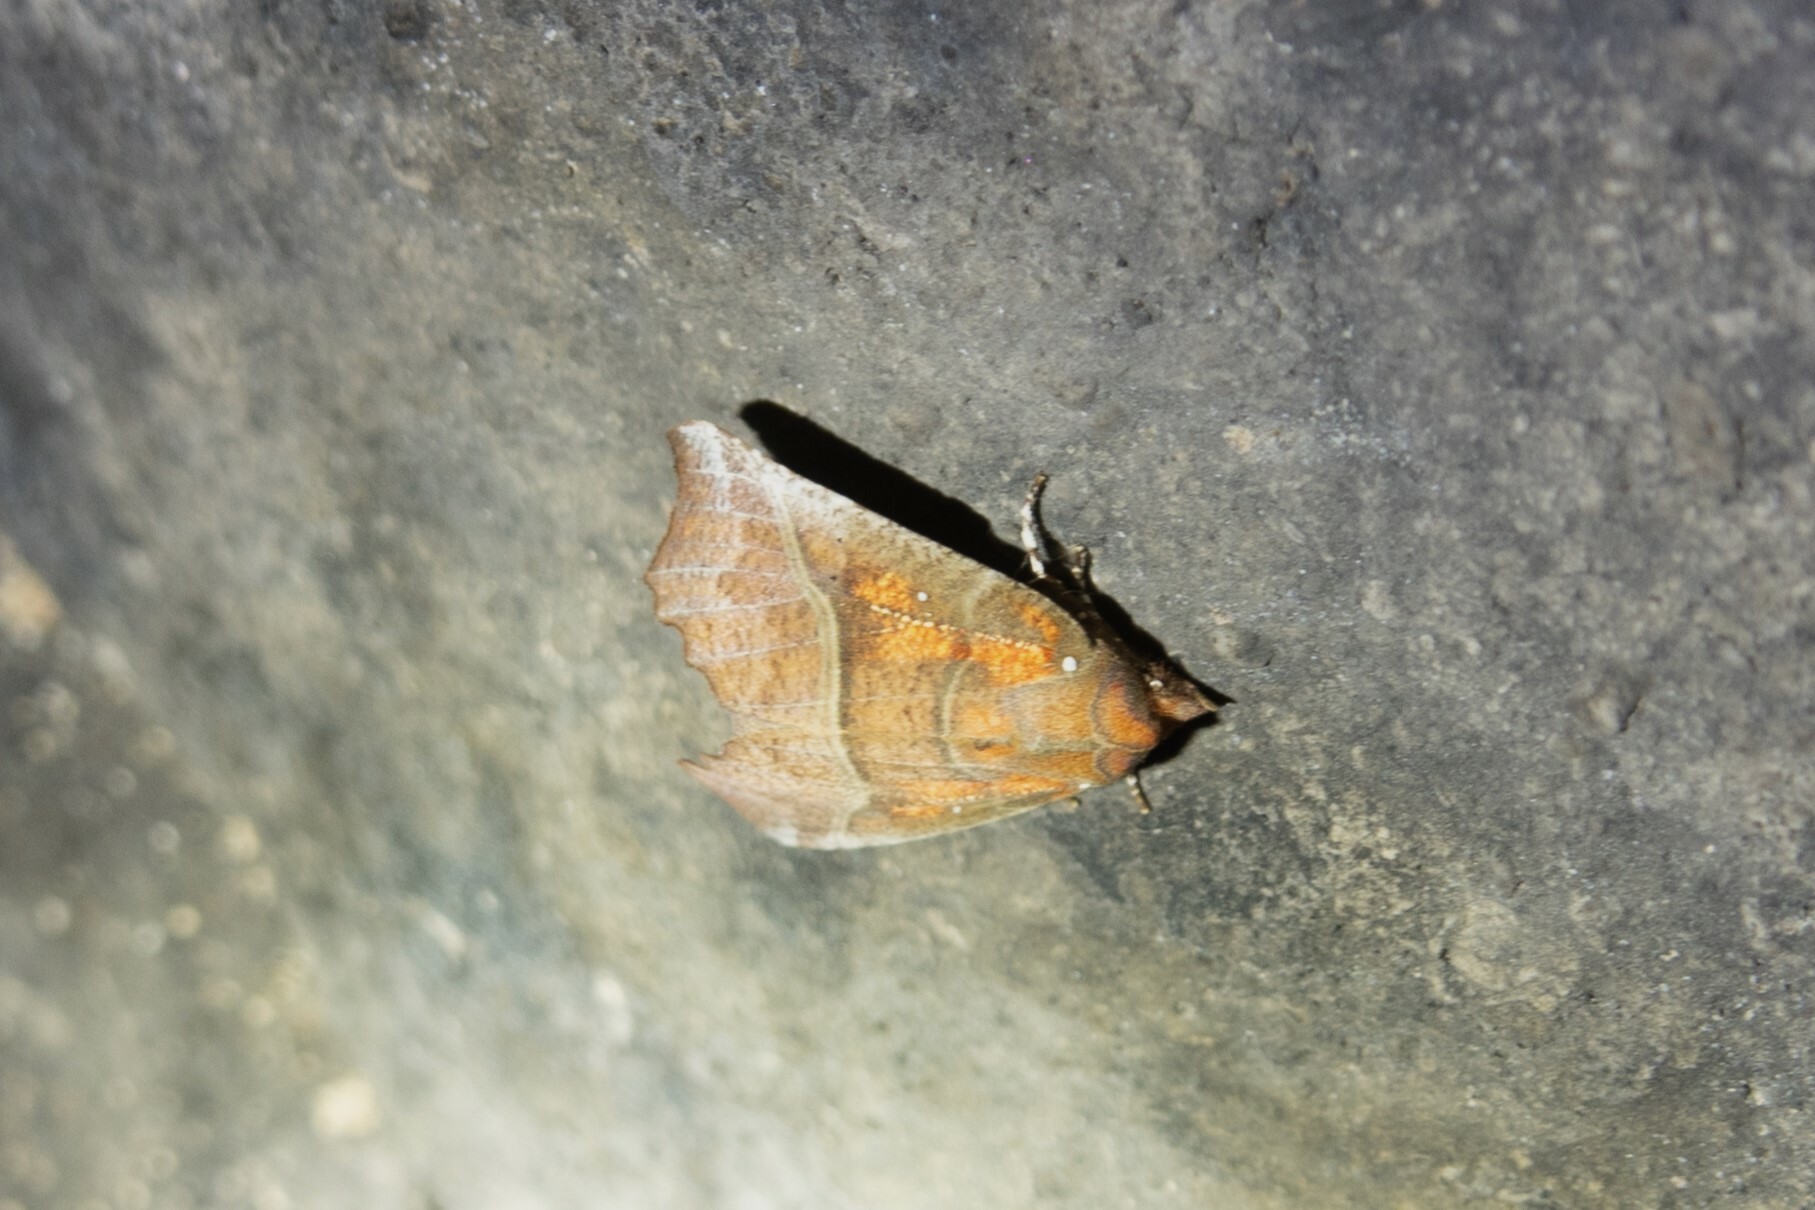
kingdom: Animalia
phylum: Arthropoda
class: Insecta
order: Lepidoptera
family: Erebidae
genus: Scoliopteryx
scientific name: Scoliopteryx libatrix
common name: Herald
